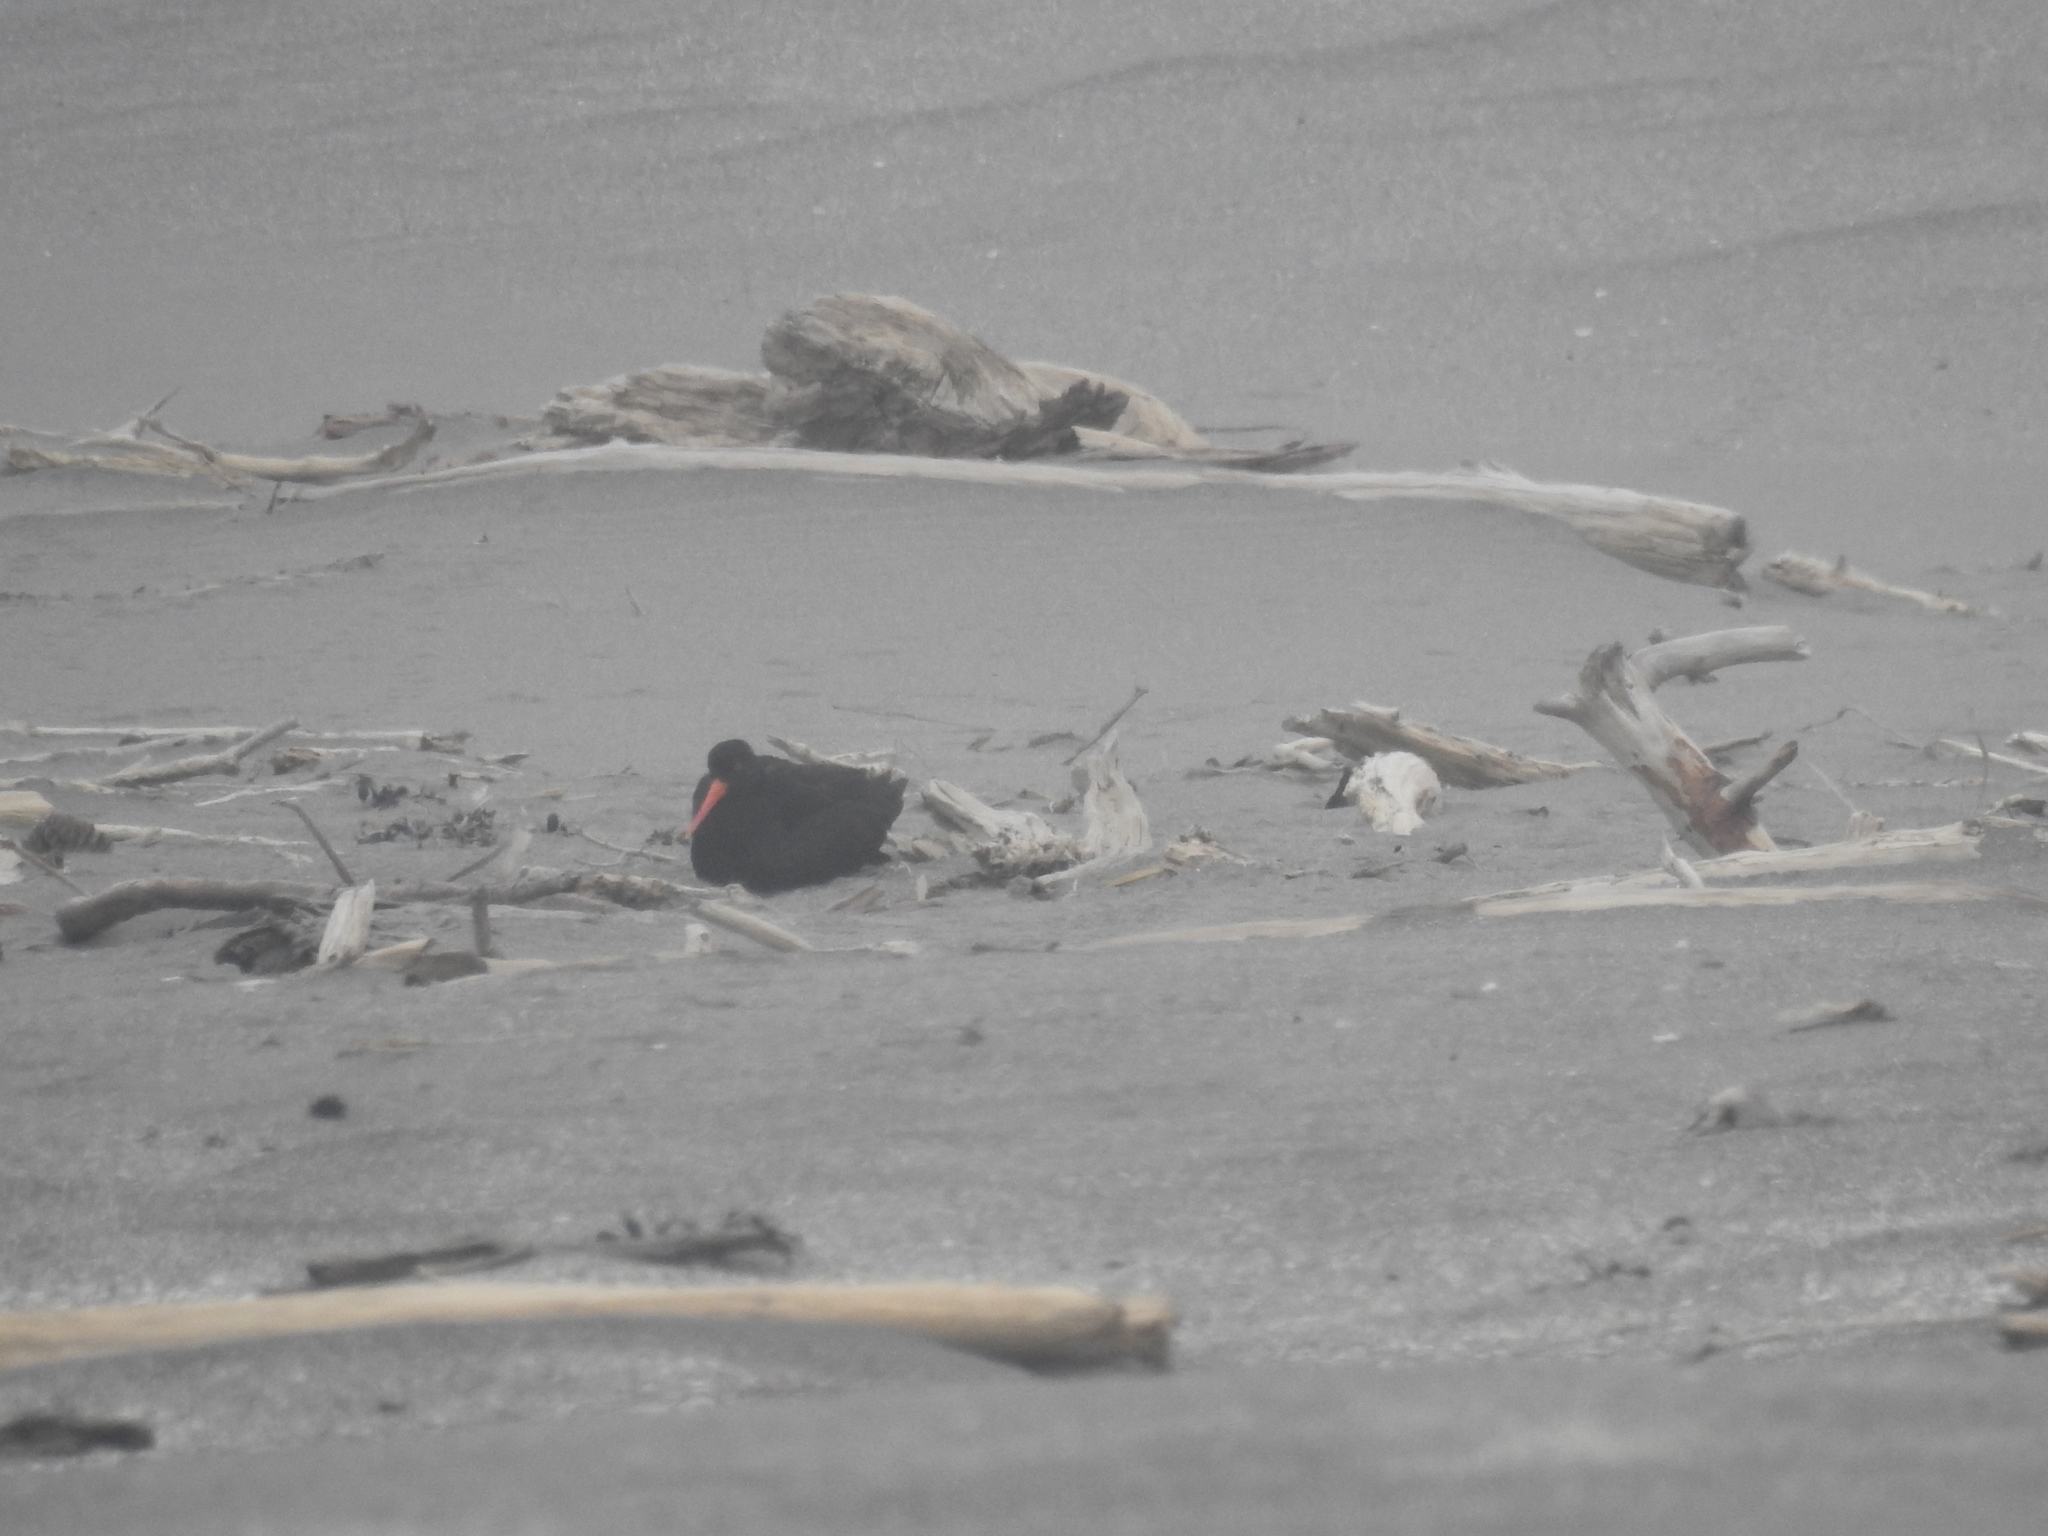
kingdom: Animalia
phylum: Chordata
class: Aves
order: Charadriiformes
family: Haematopodidae
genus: Haematopus
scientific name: Haematopus unicolor
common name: Variable oystercatcher
